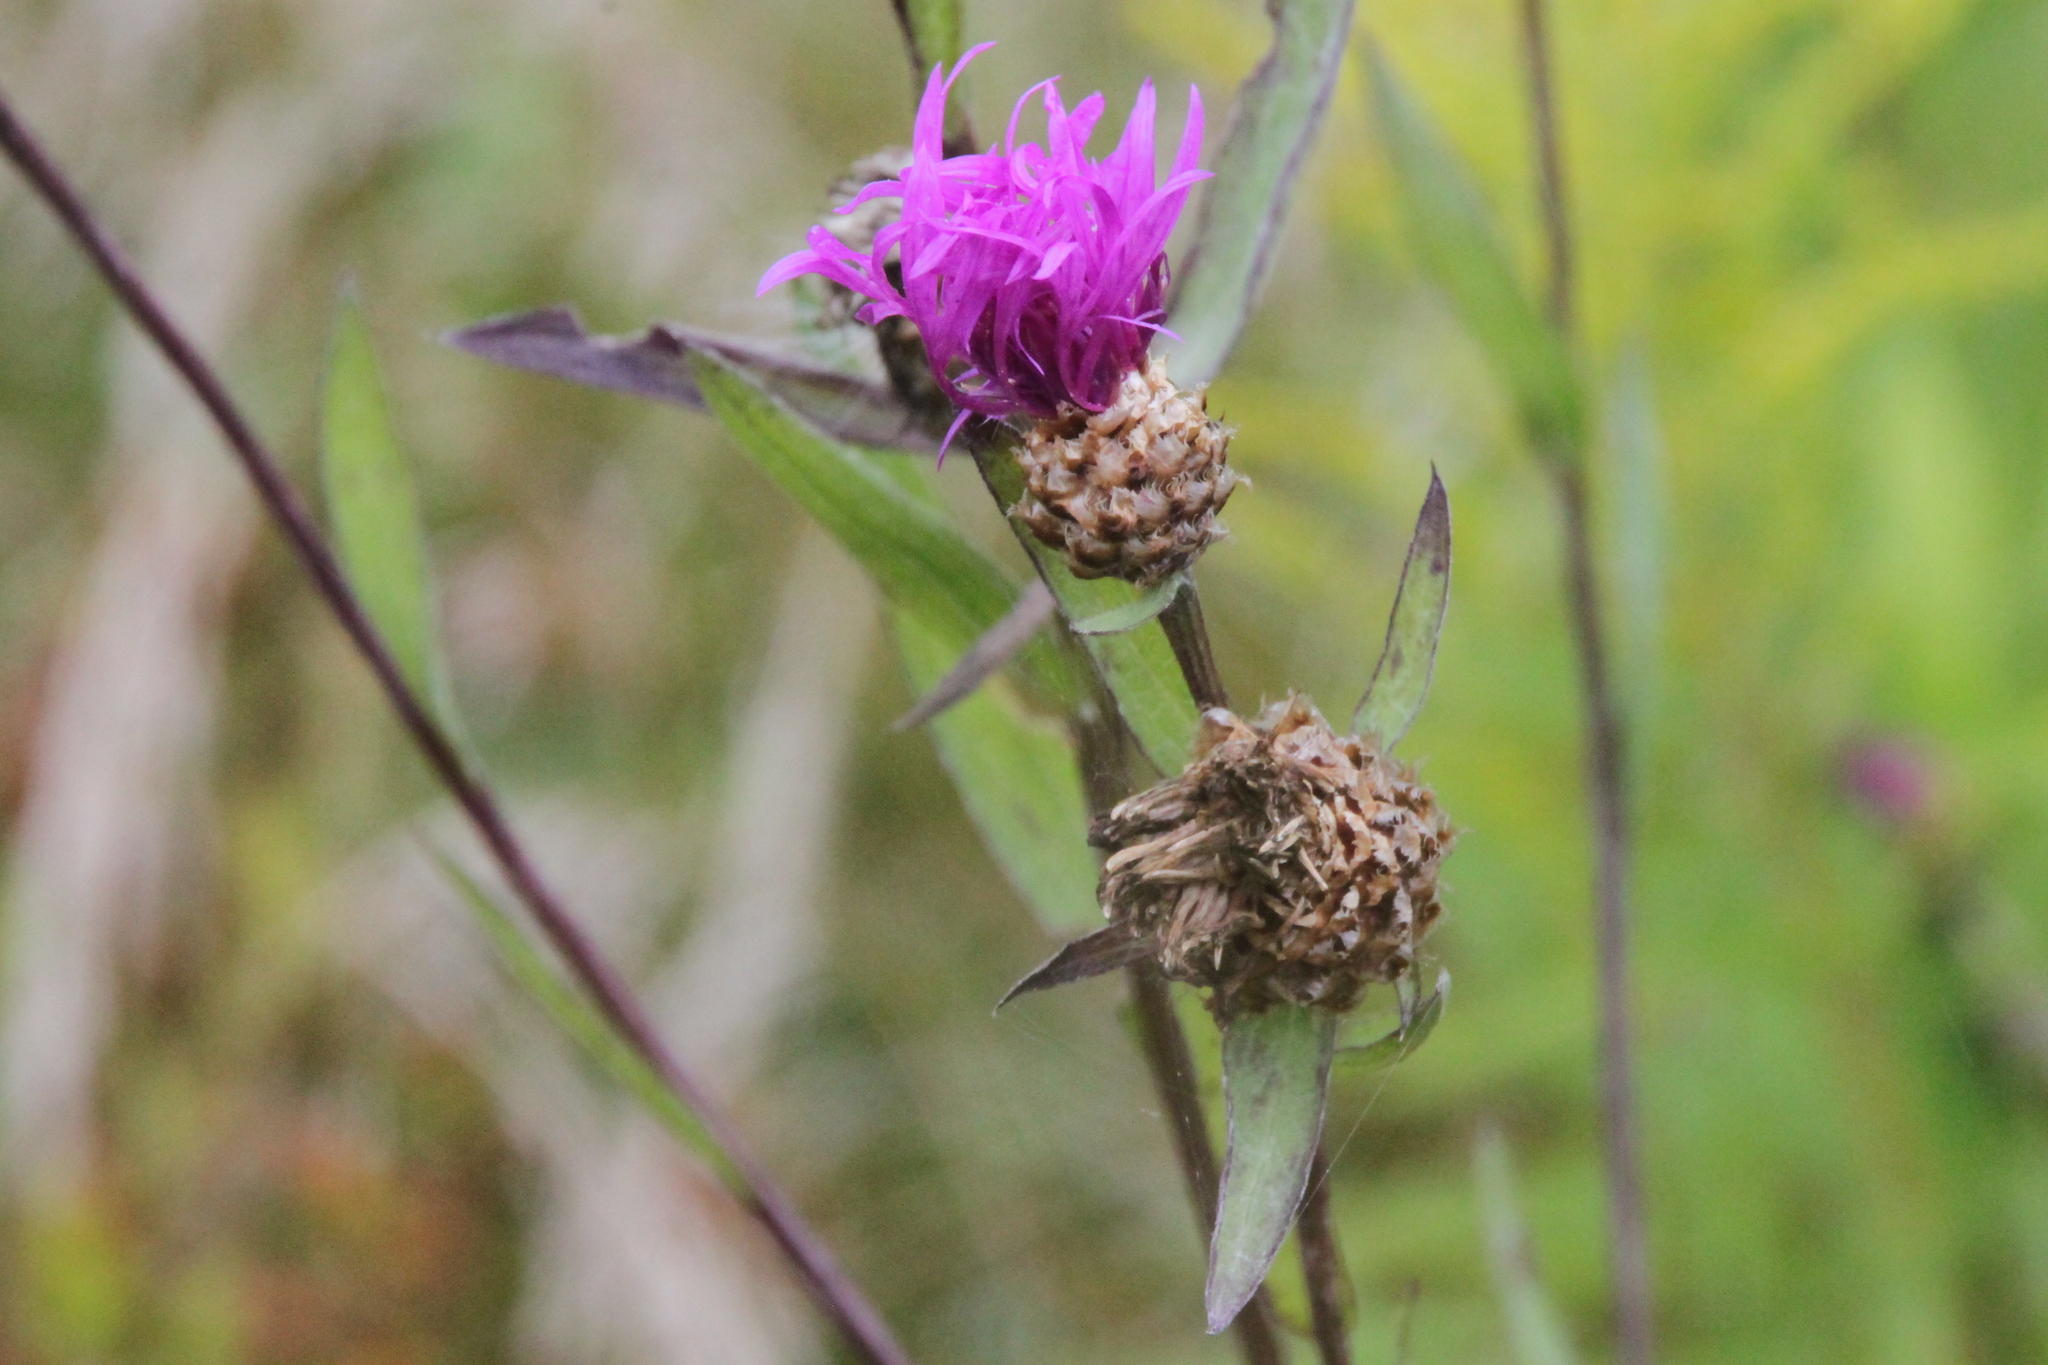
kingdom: Plantae
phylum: Tracheophyta
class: Magnoliopsida
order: Asterales
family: Asteraceae
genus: Centaurea
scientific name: Centaurea jacea
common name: Brown knapweed
